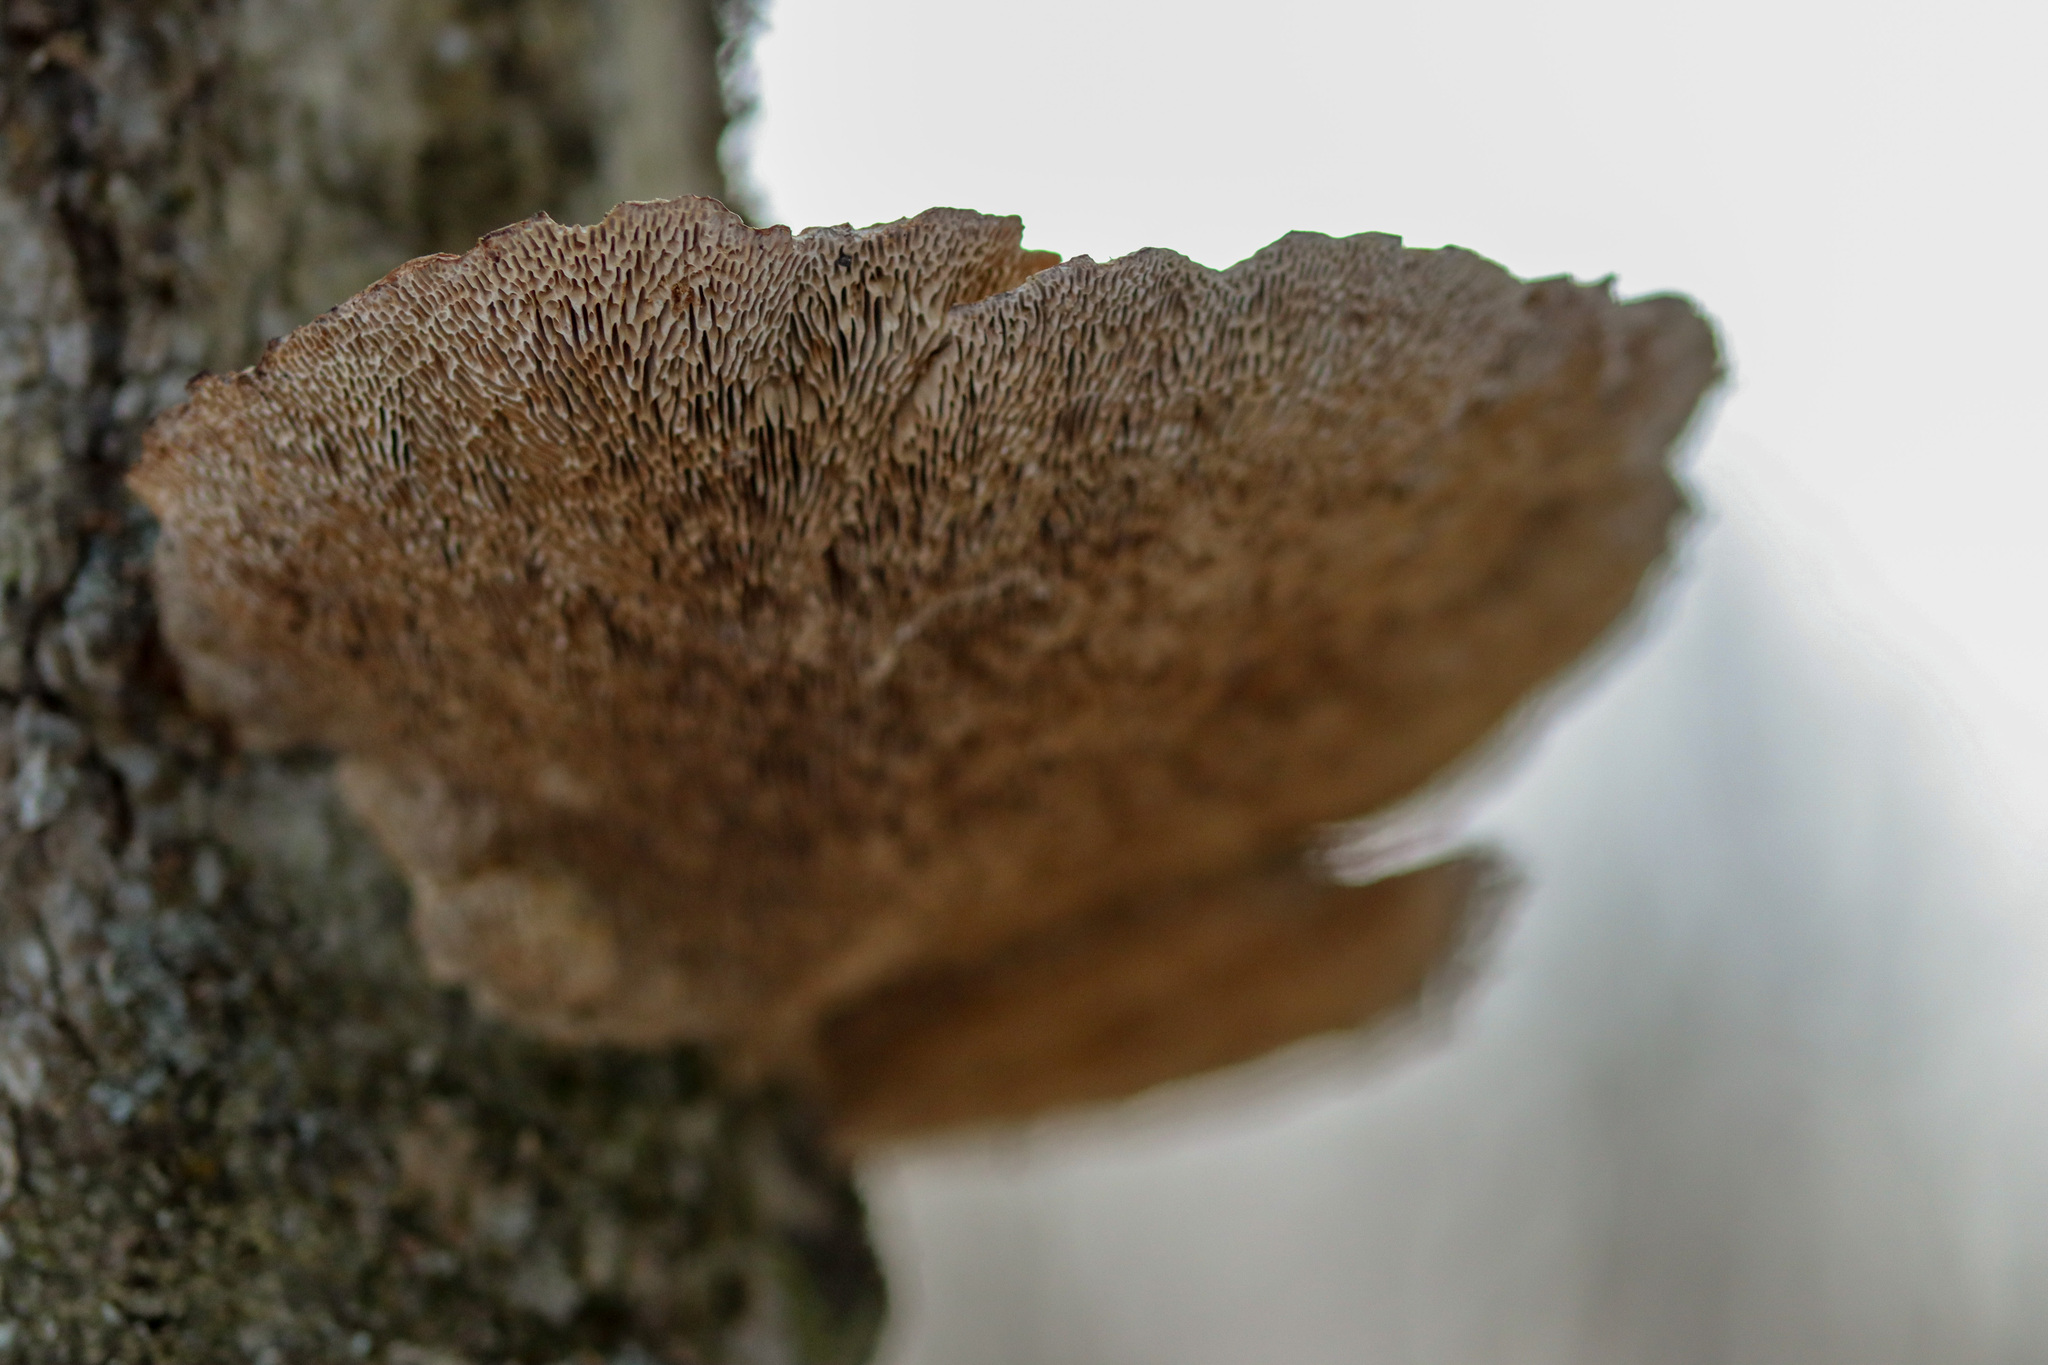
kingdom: Fungi
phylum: Basidiomycota
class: Agaricomycetes
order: Polyporales
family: Polyporaceae
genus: Daedaleopsis
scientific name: Daedaleopsis confragosa
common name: Blushing bracket
